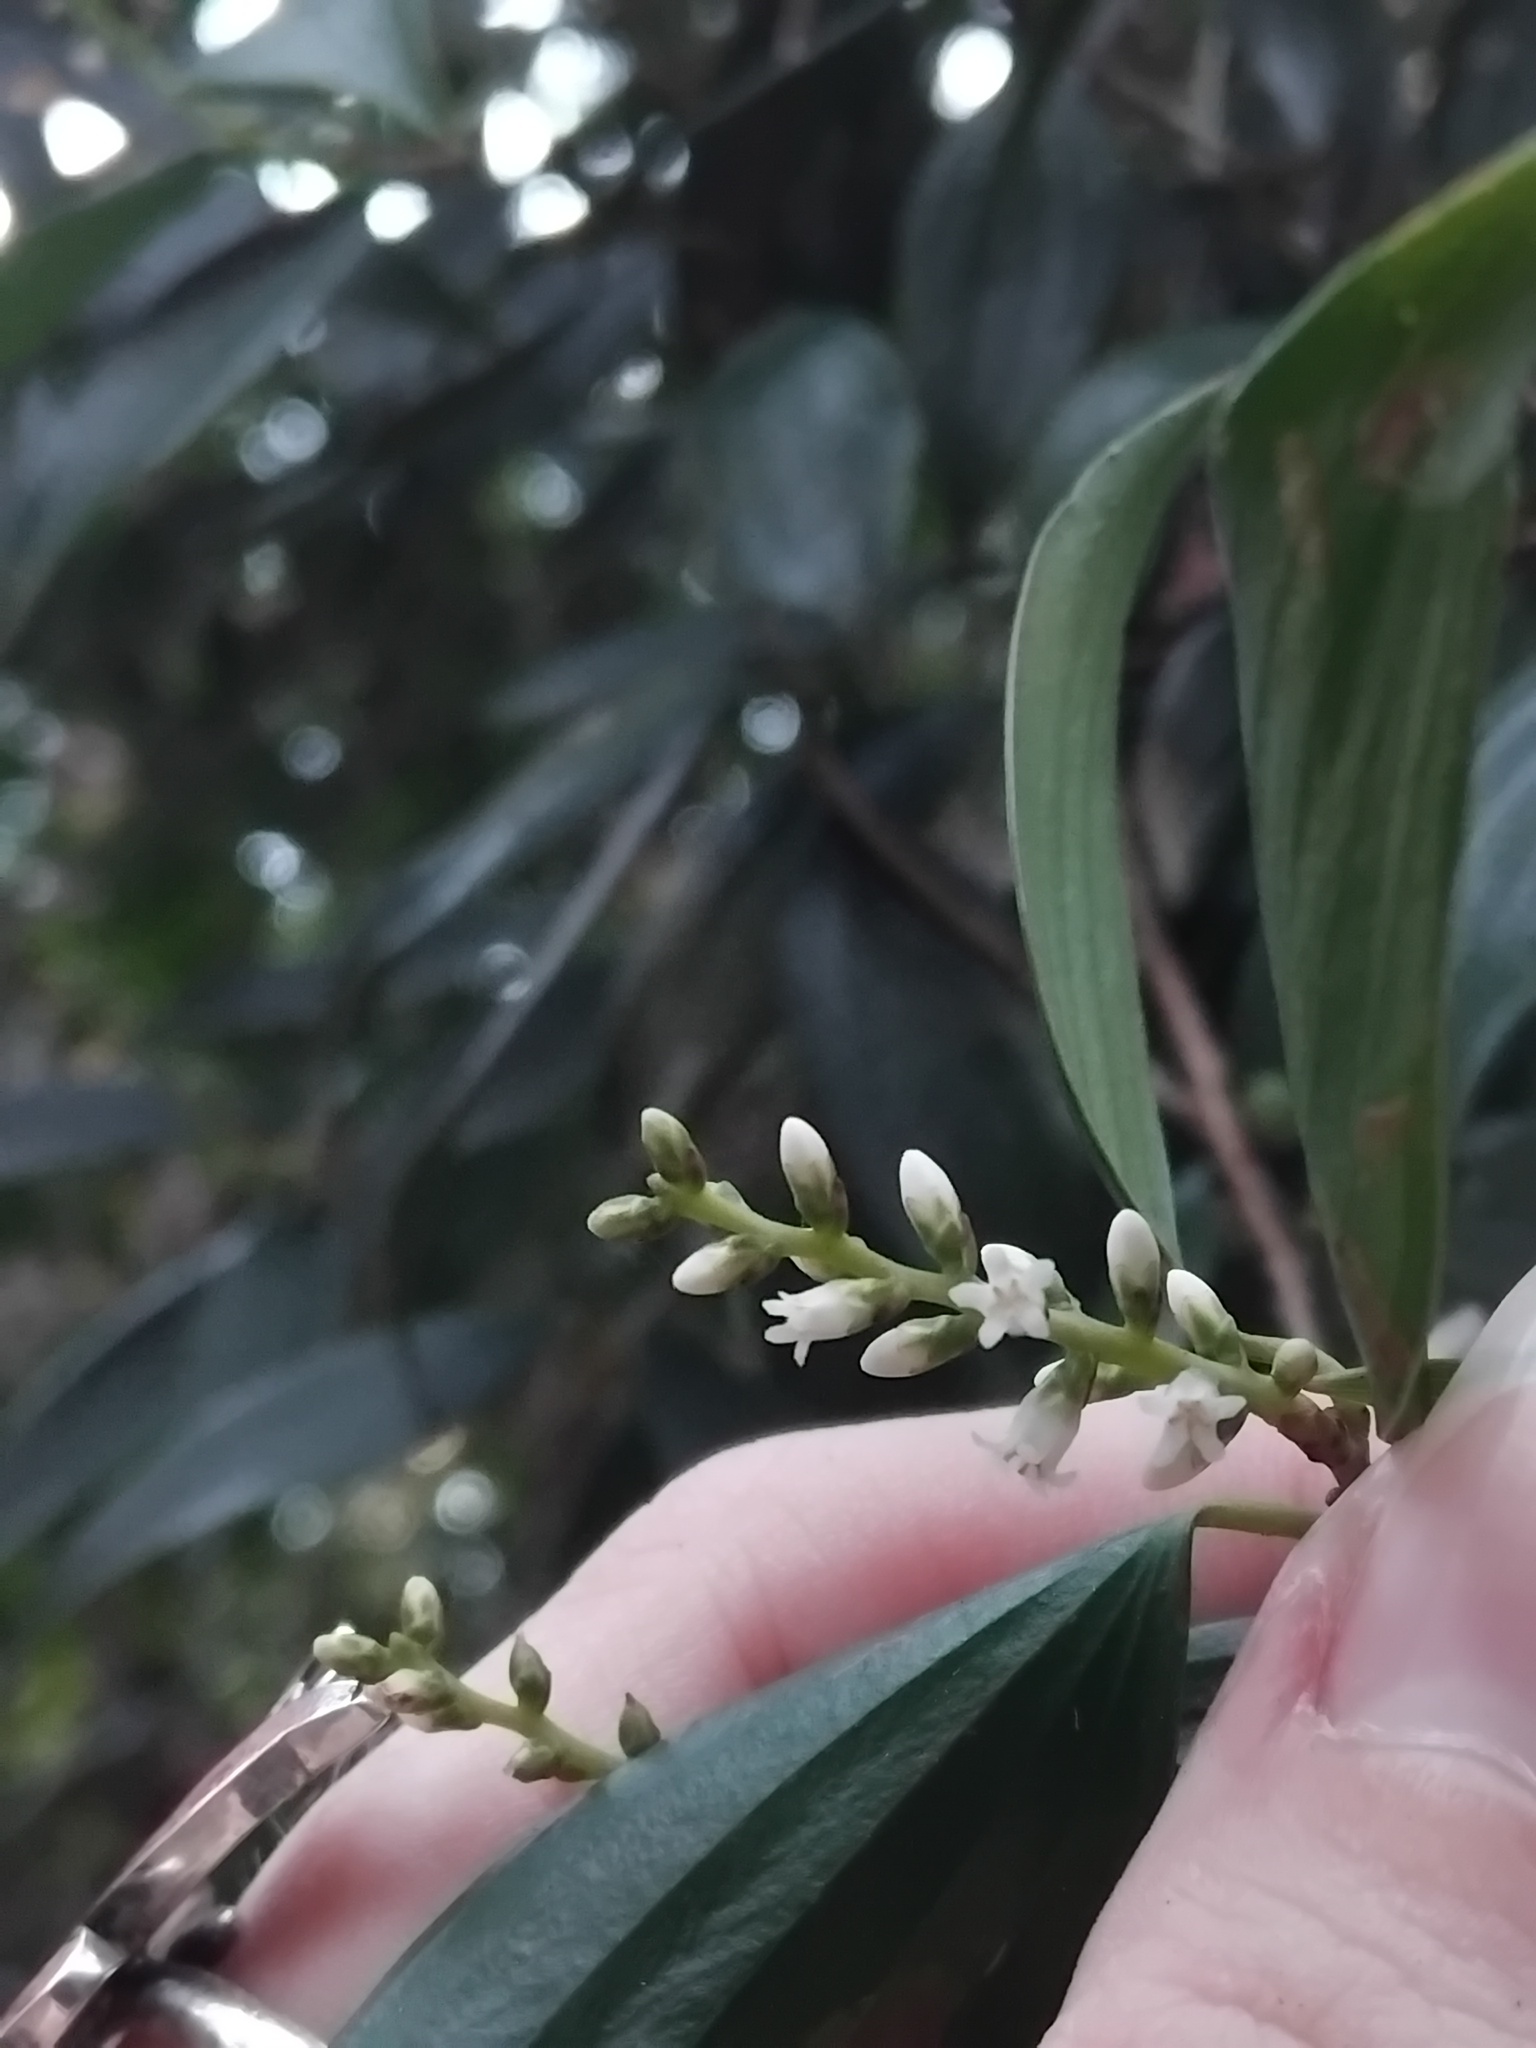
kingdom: Plantae
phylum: Tracheophyta
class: Magnoliopsida
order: Ericales
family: Ericaceae
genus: Trochocarpa
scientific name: Trochocarpa laurina
